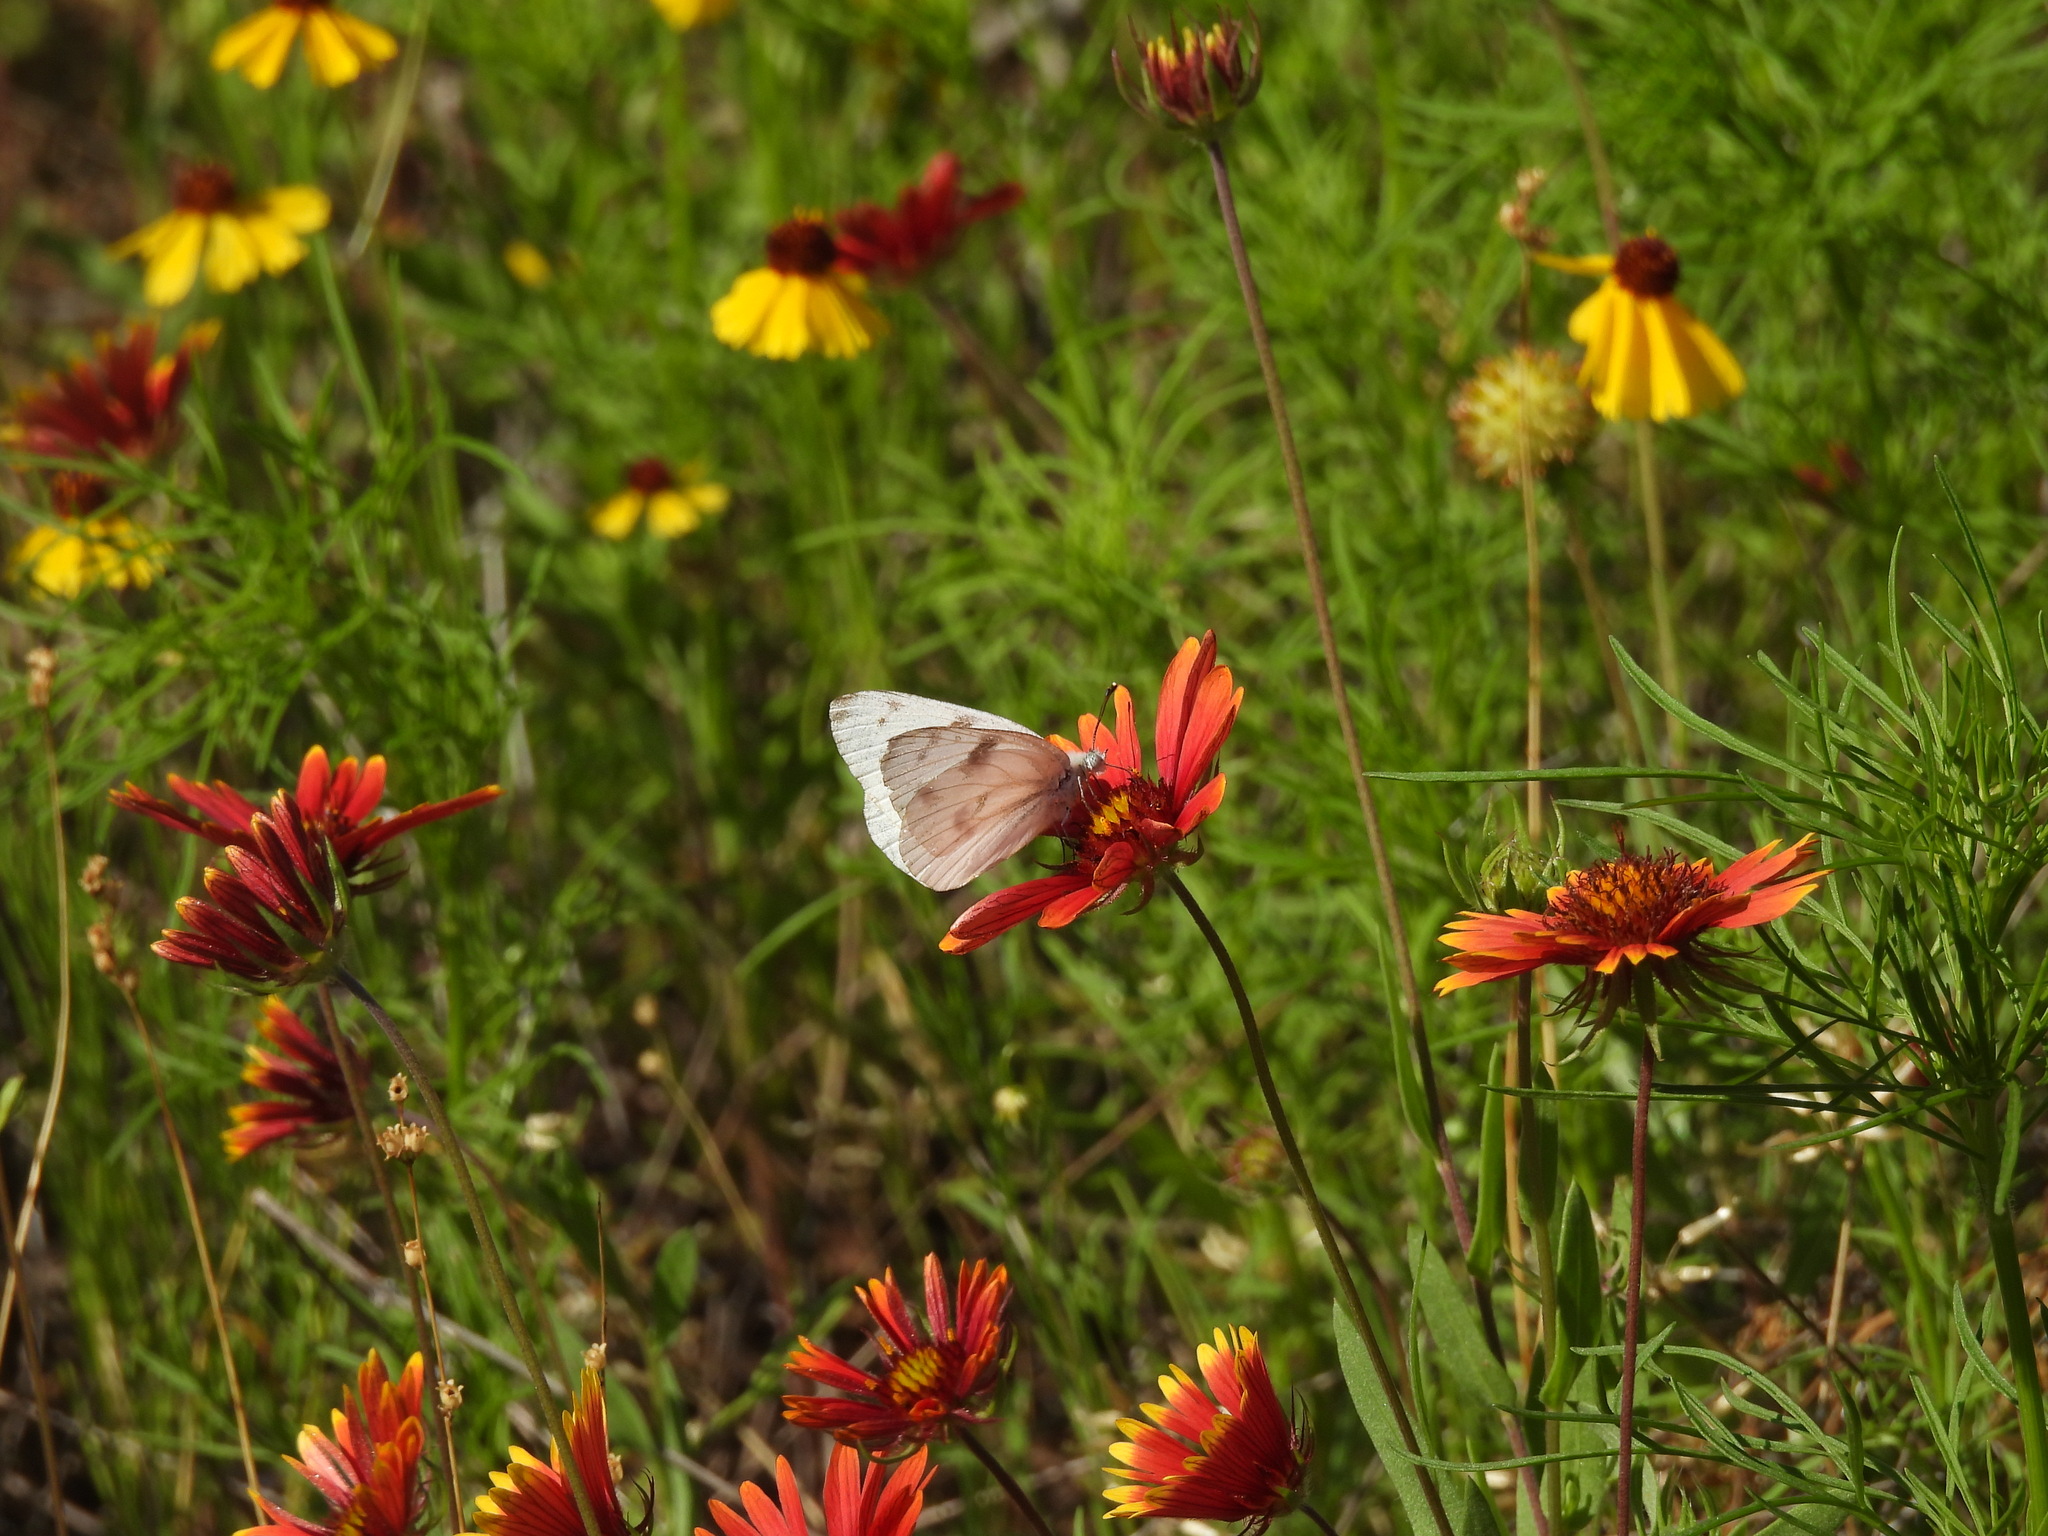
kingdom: Animalia
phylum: Arthropoda
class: Insecta
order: Lepidoptera
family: Pieridae
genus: Pontia
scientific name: Pontia protodice
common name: Checkered white
